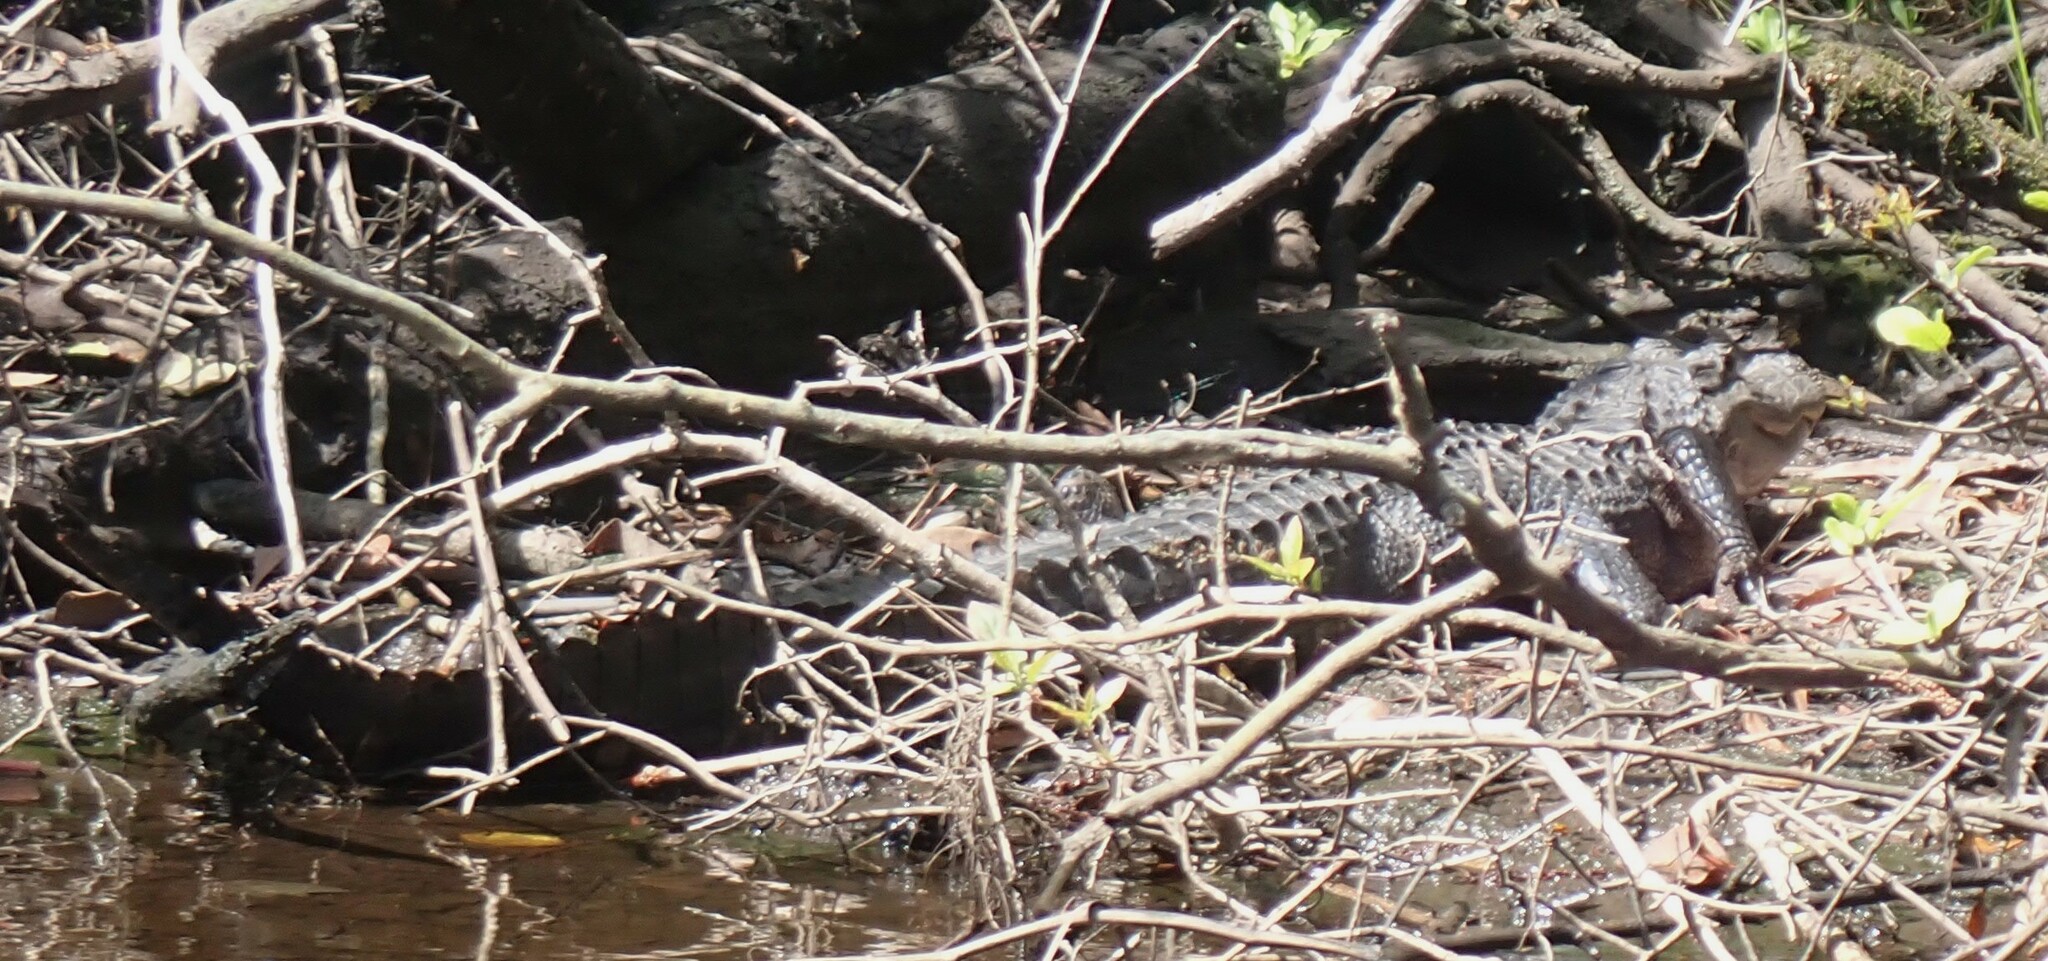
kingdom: Animalia
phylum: Chordata
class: Crocodylia
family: Alligatoridae
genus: Alligator
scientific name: Alligator mississippiensis
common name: American alligator
